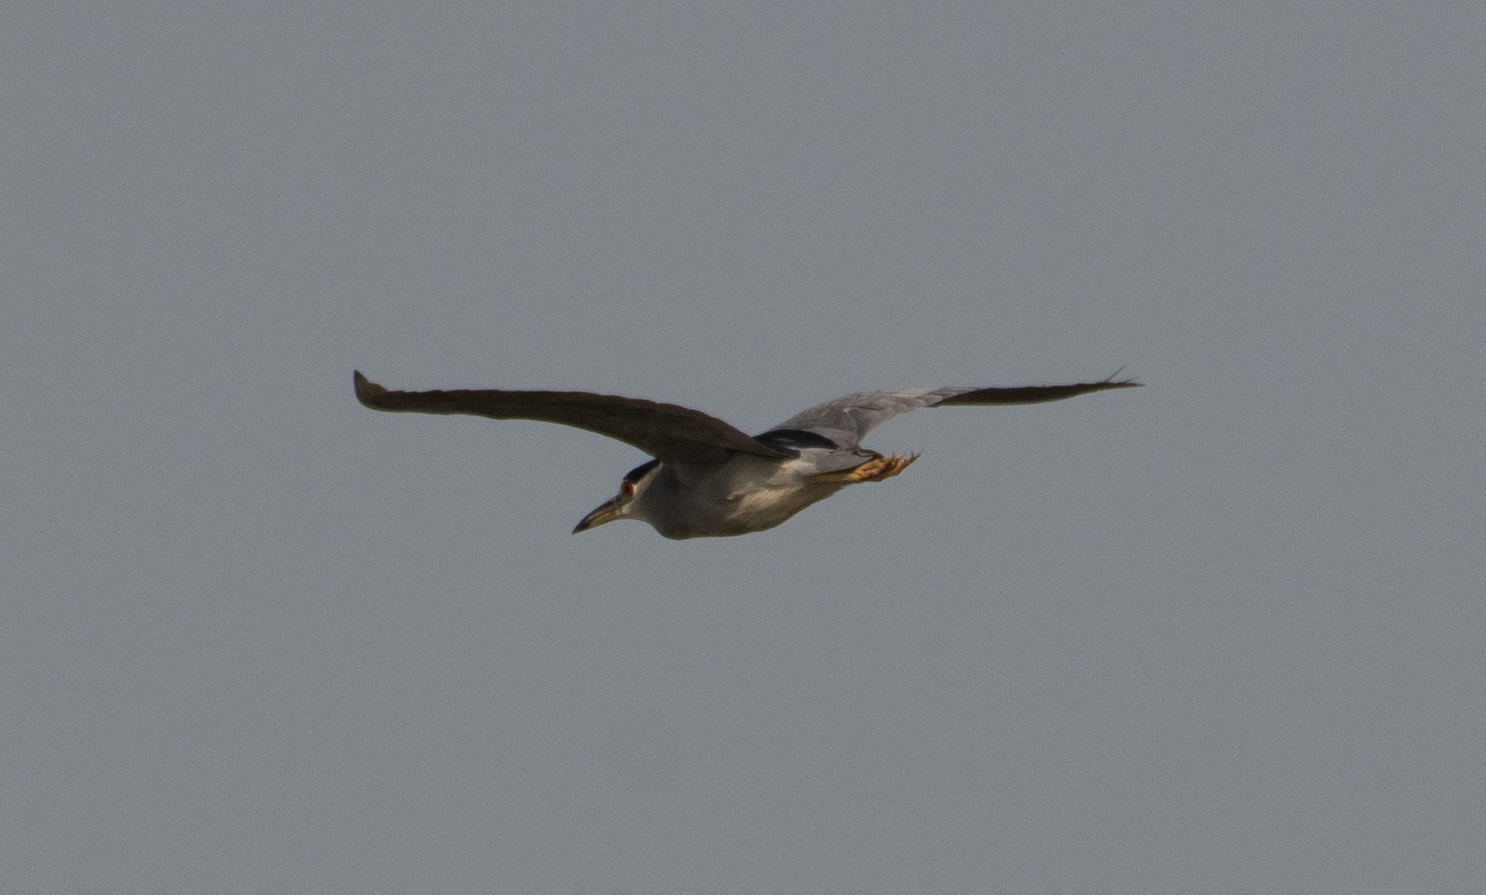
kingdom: Animalia
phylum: Chordata
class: Aves
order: Pelecaniformes
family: Ardeidae
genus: Nycticorax
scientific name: Nycticorax nycticorax
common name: Black-crowned night heron
